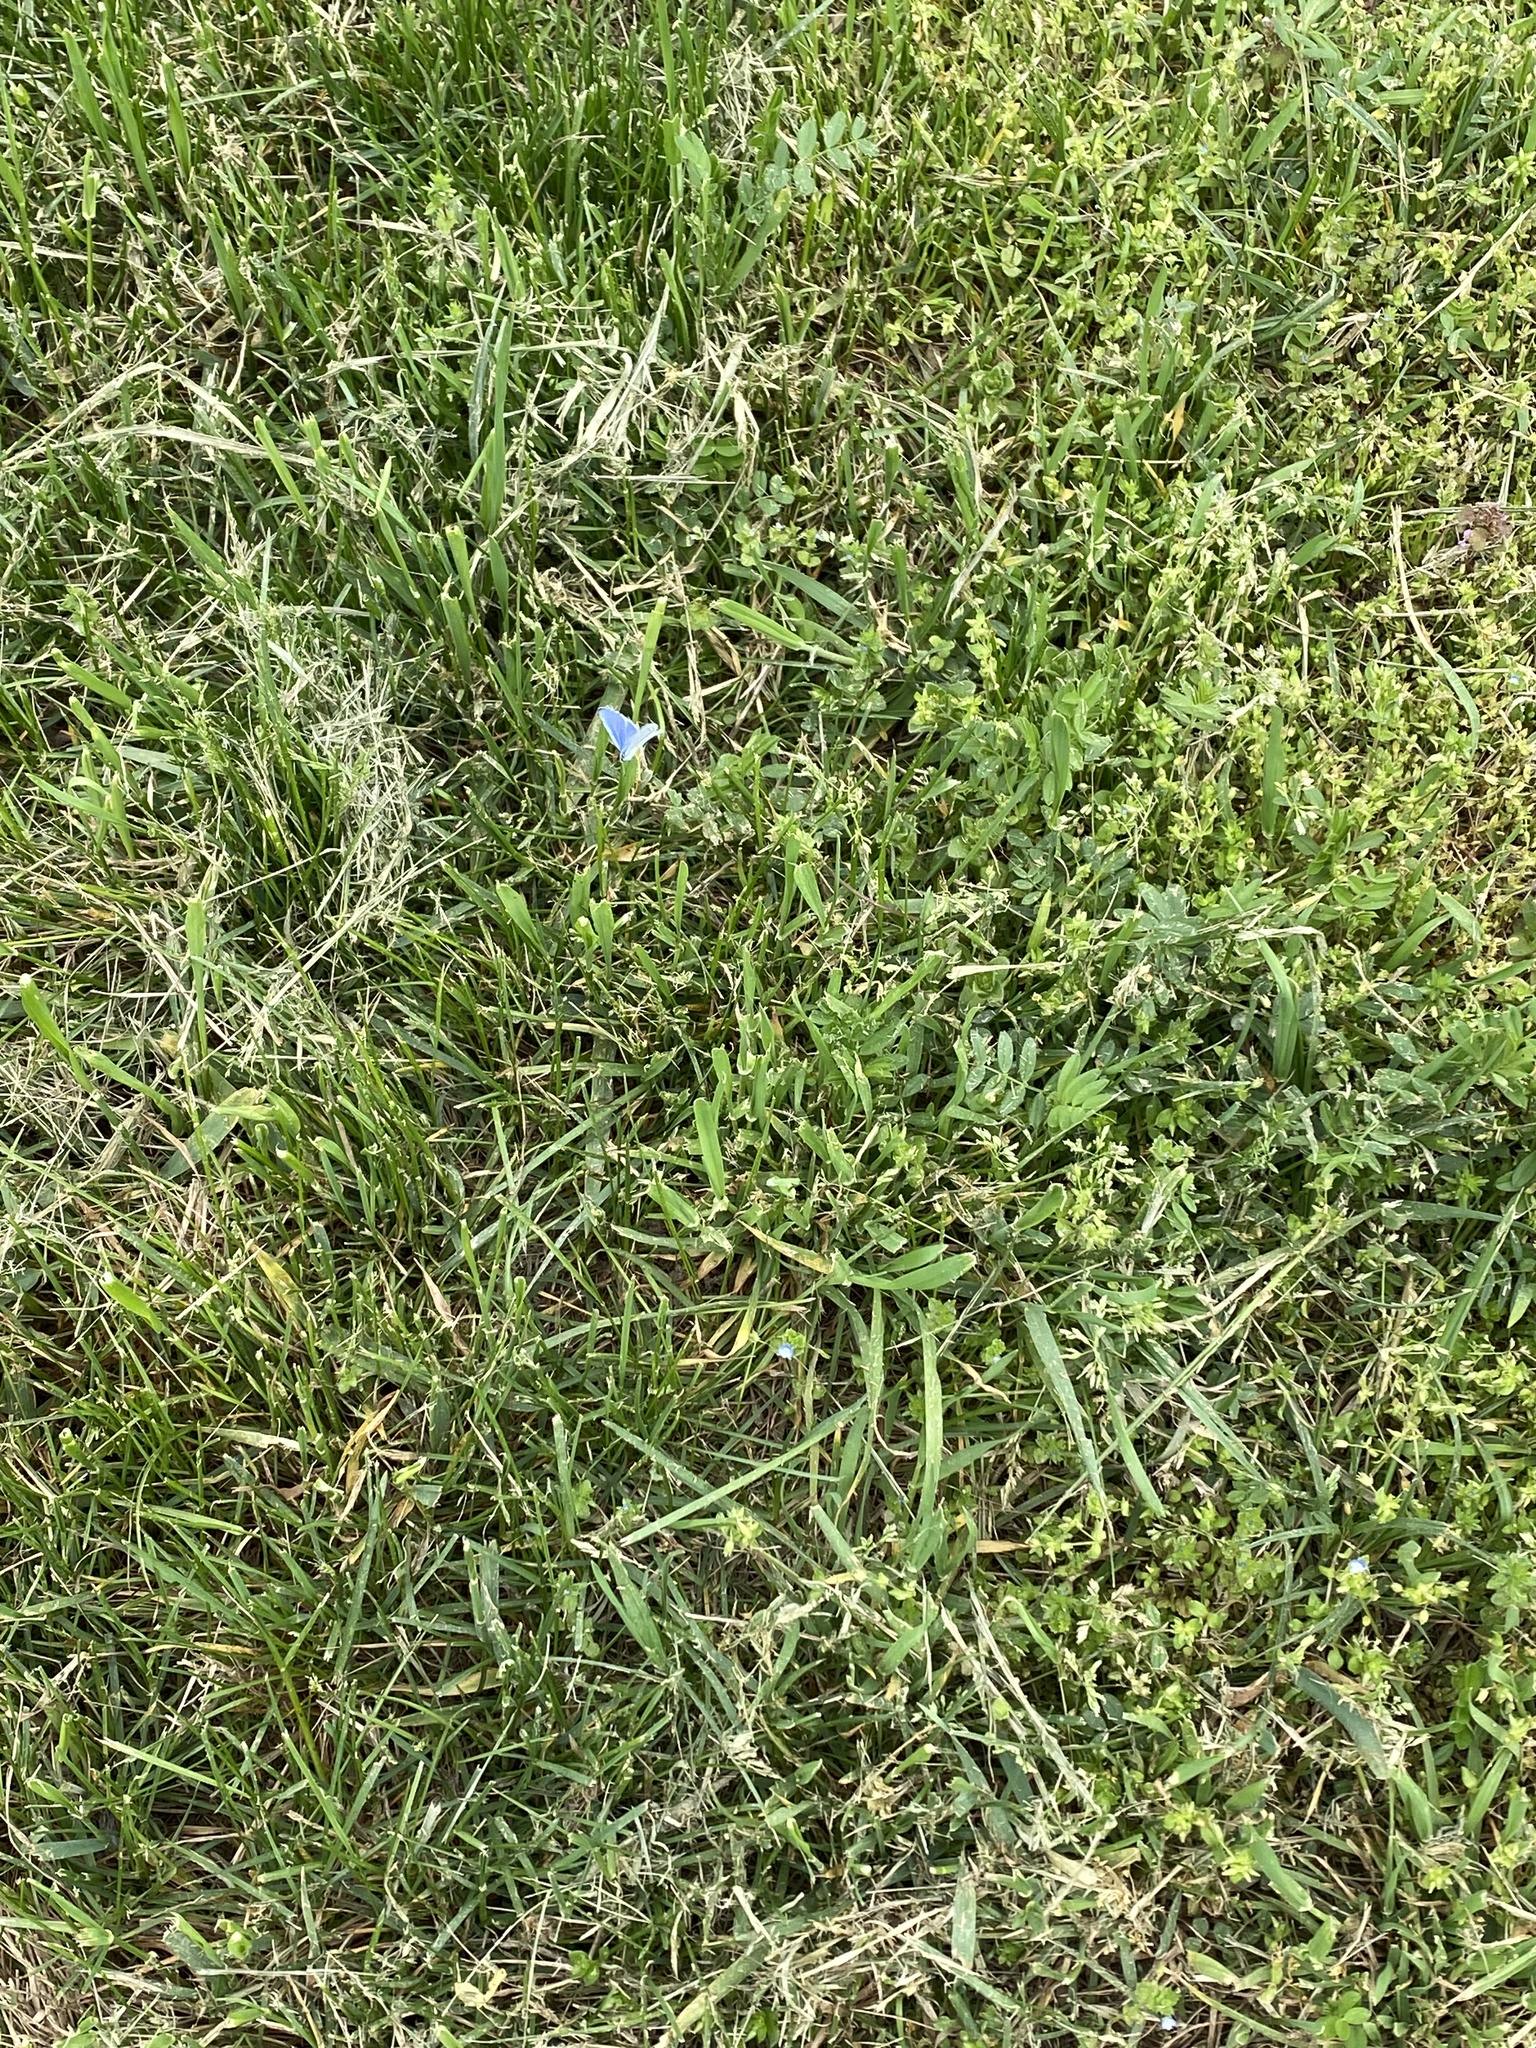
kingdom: Animalia
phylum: Arthropoda
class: Insecta
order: Lepidoptera
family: Lycaenidae
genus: Celastrina
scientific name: Celastrina argiolus
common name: Holly blue
